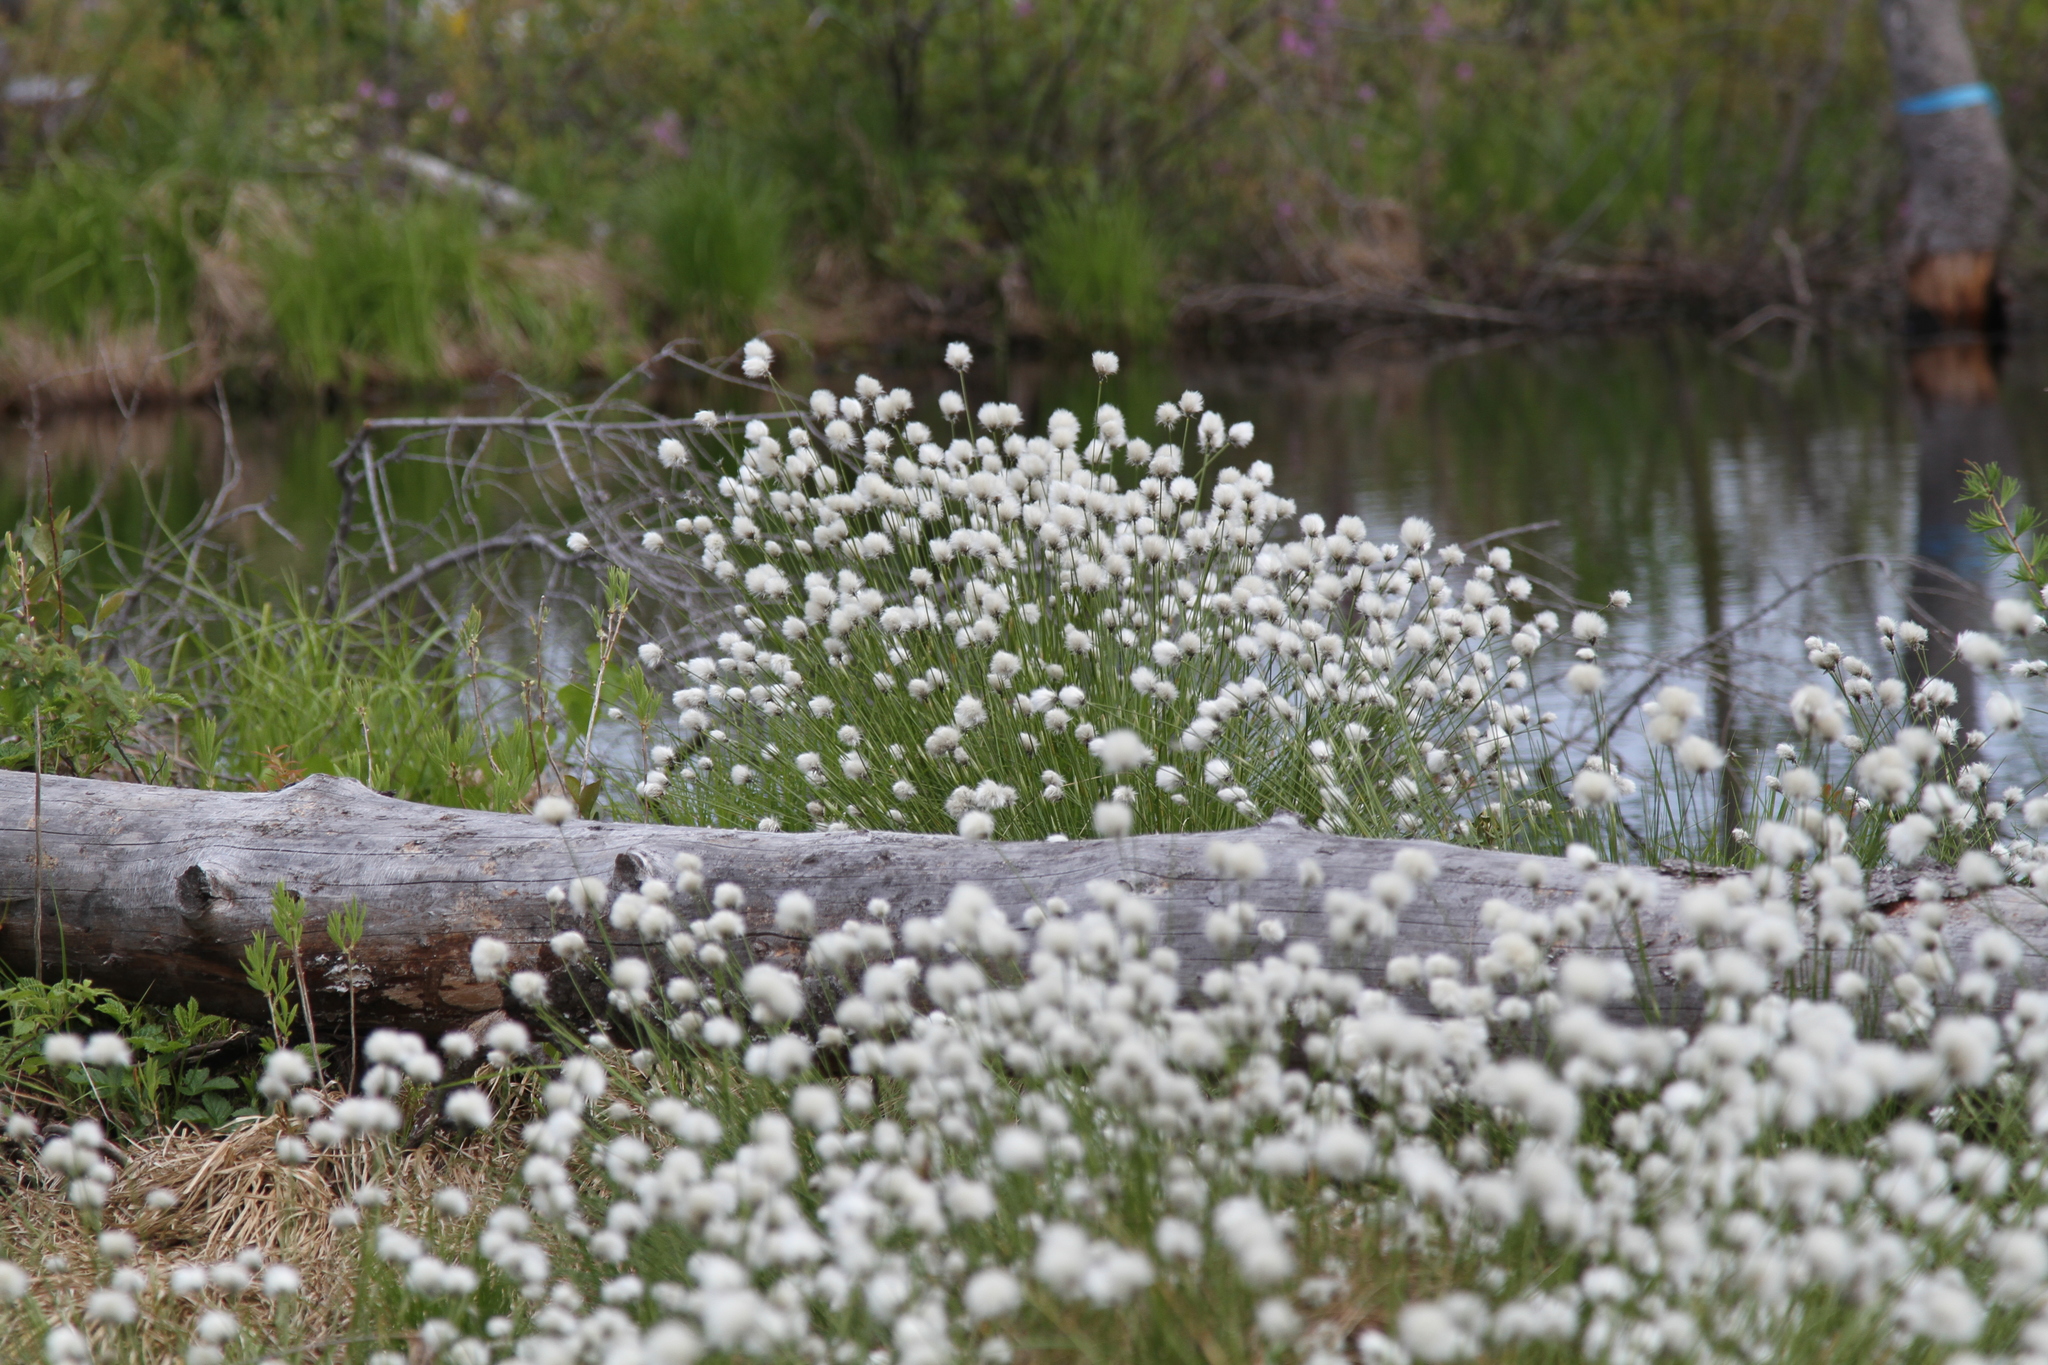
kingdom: Plantae
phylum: Tracheophyta
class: Liliopsida
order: Poales
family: Cyperaceae
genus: Eriophorum
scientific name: Eriophorum vaginatum
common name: Hare's-tail cottongrass
